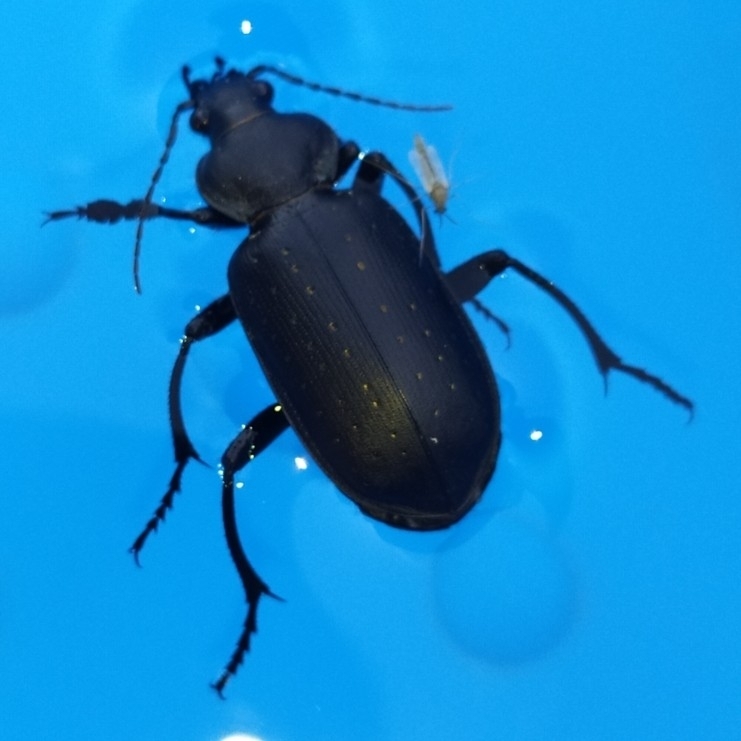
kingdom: Animalia
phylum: Arthropoda
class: Insecta
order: Coleoptera
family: Carabidae
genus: Calosoma
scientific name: Calosoma maderae
